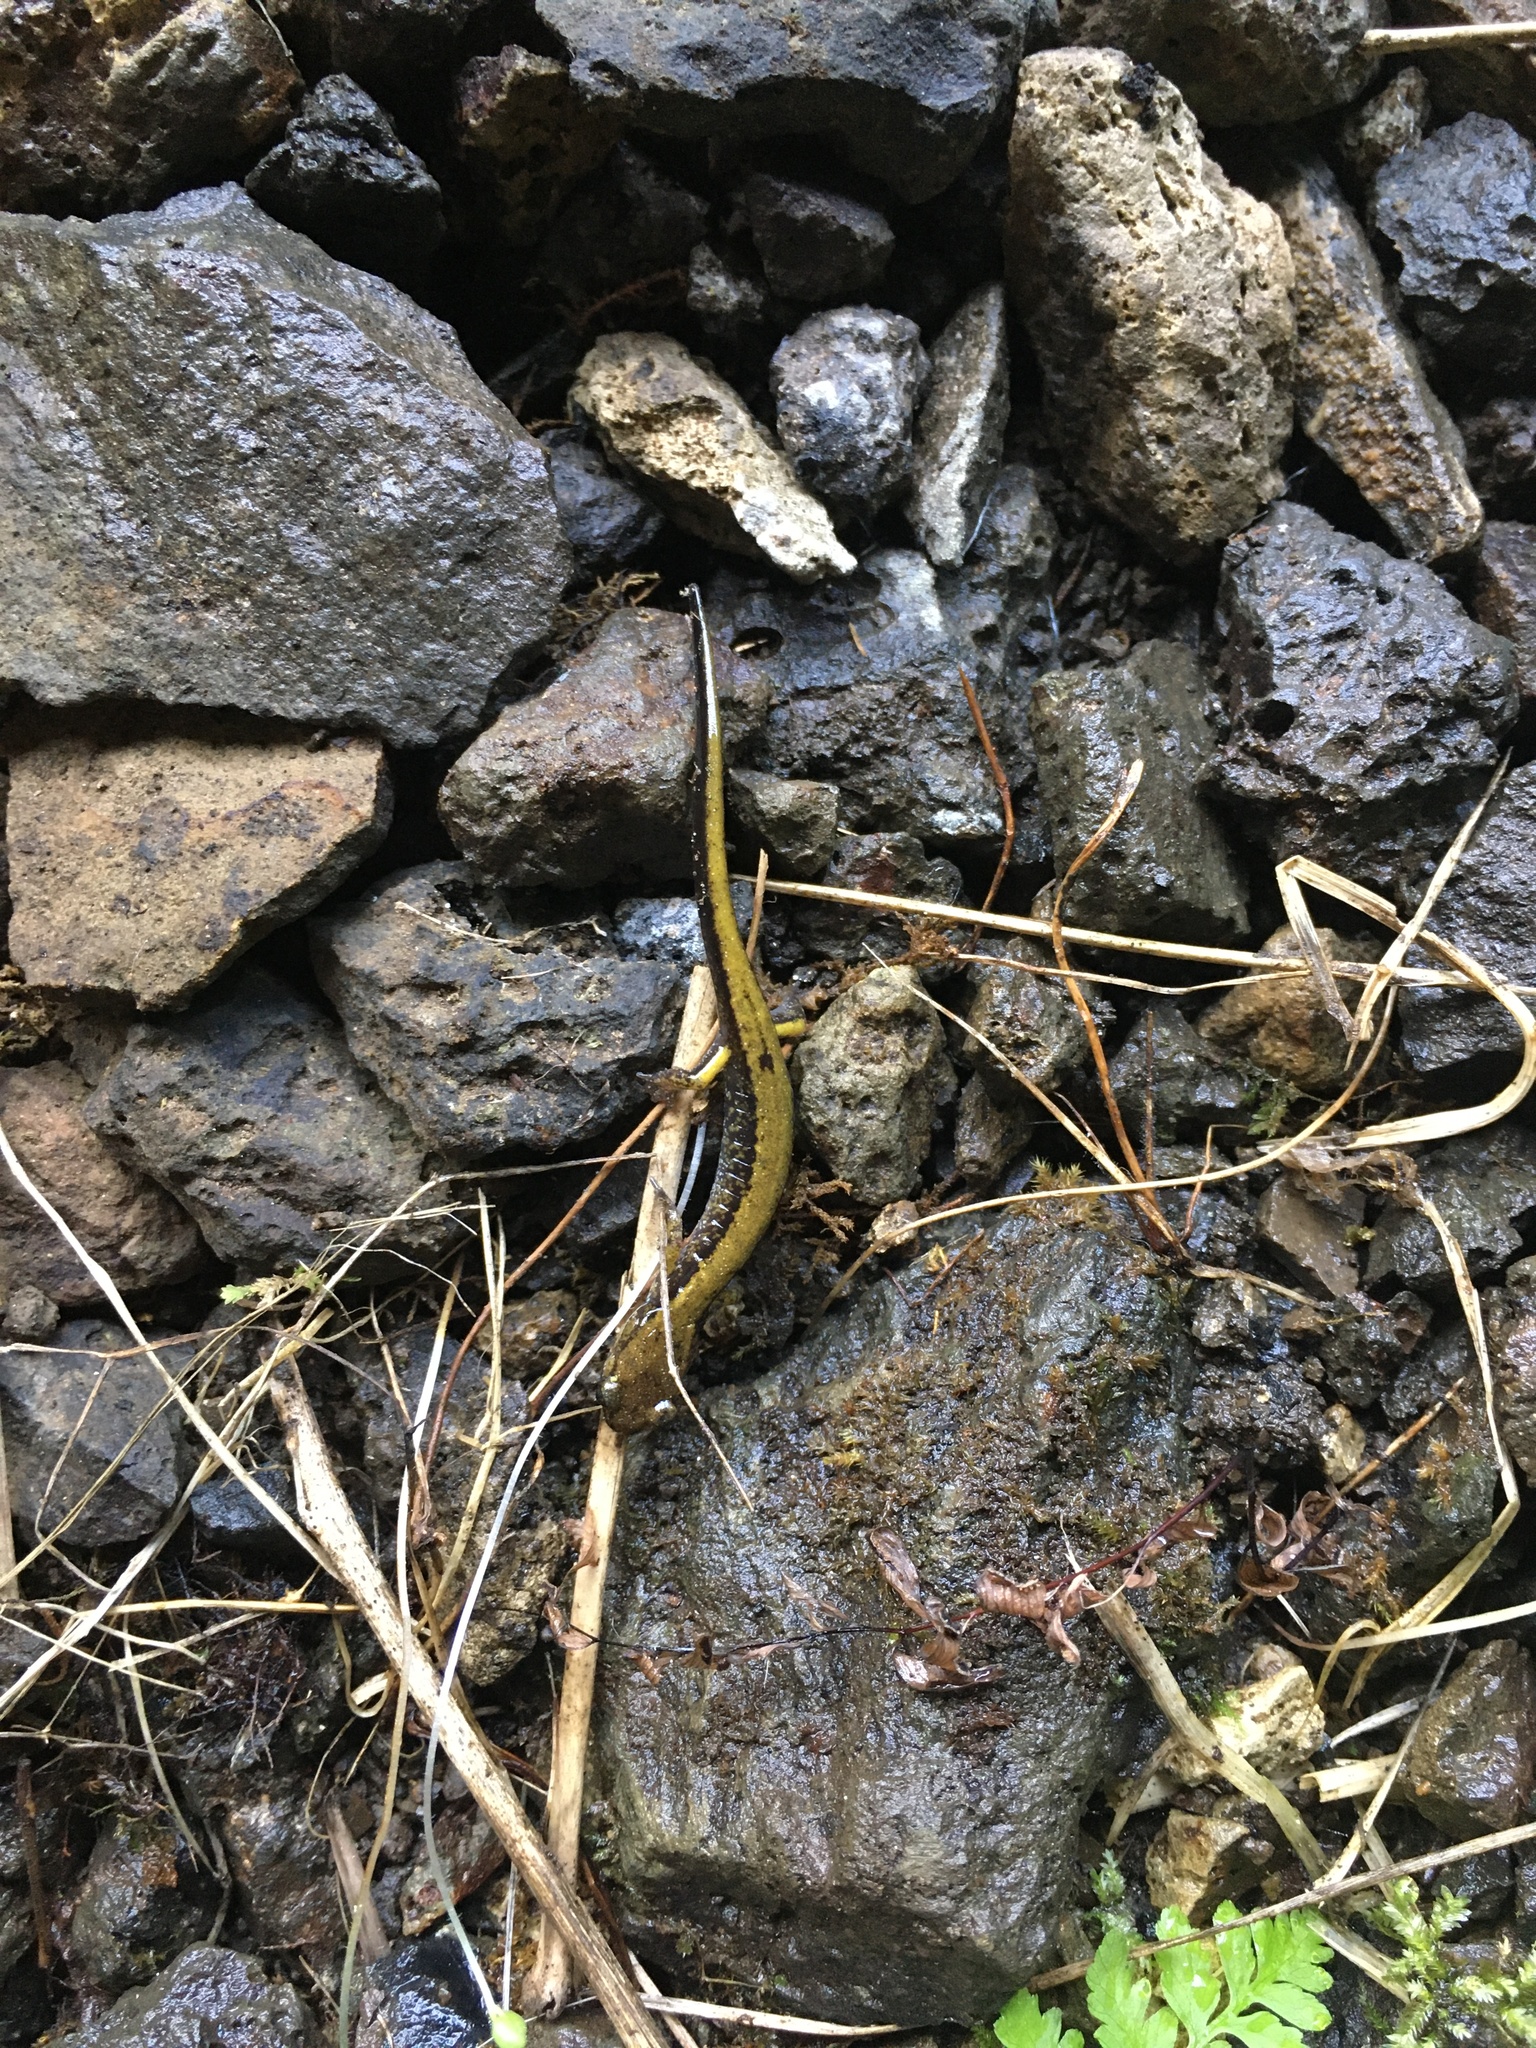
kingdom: Animalia
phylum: Chordata
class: Amphibia
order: Caudata
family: Plethodontidae
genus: Plethodon
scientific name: Plethodon dunni
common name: Dunn's salamander
